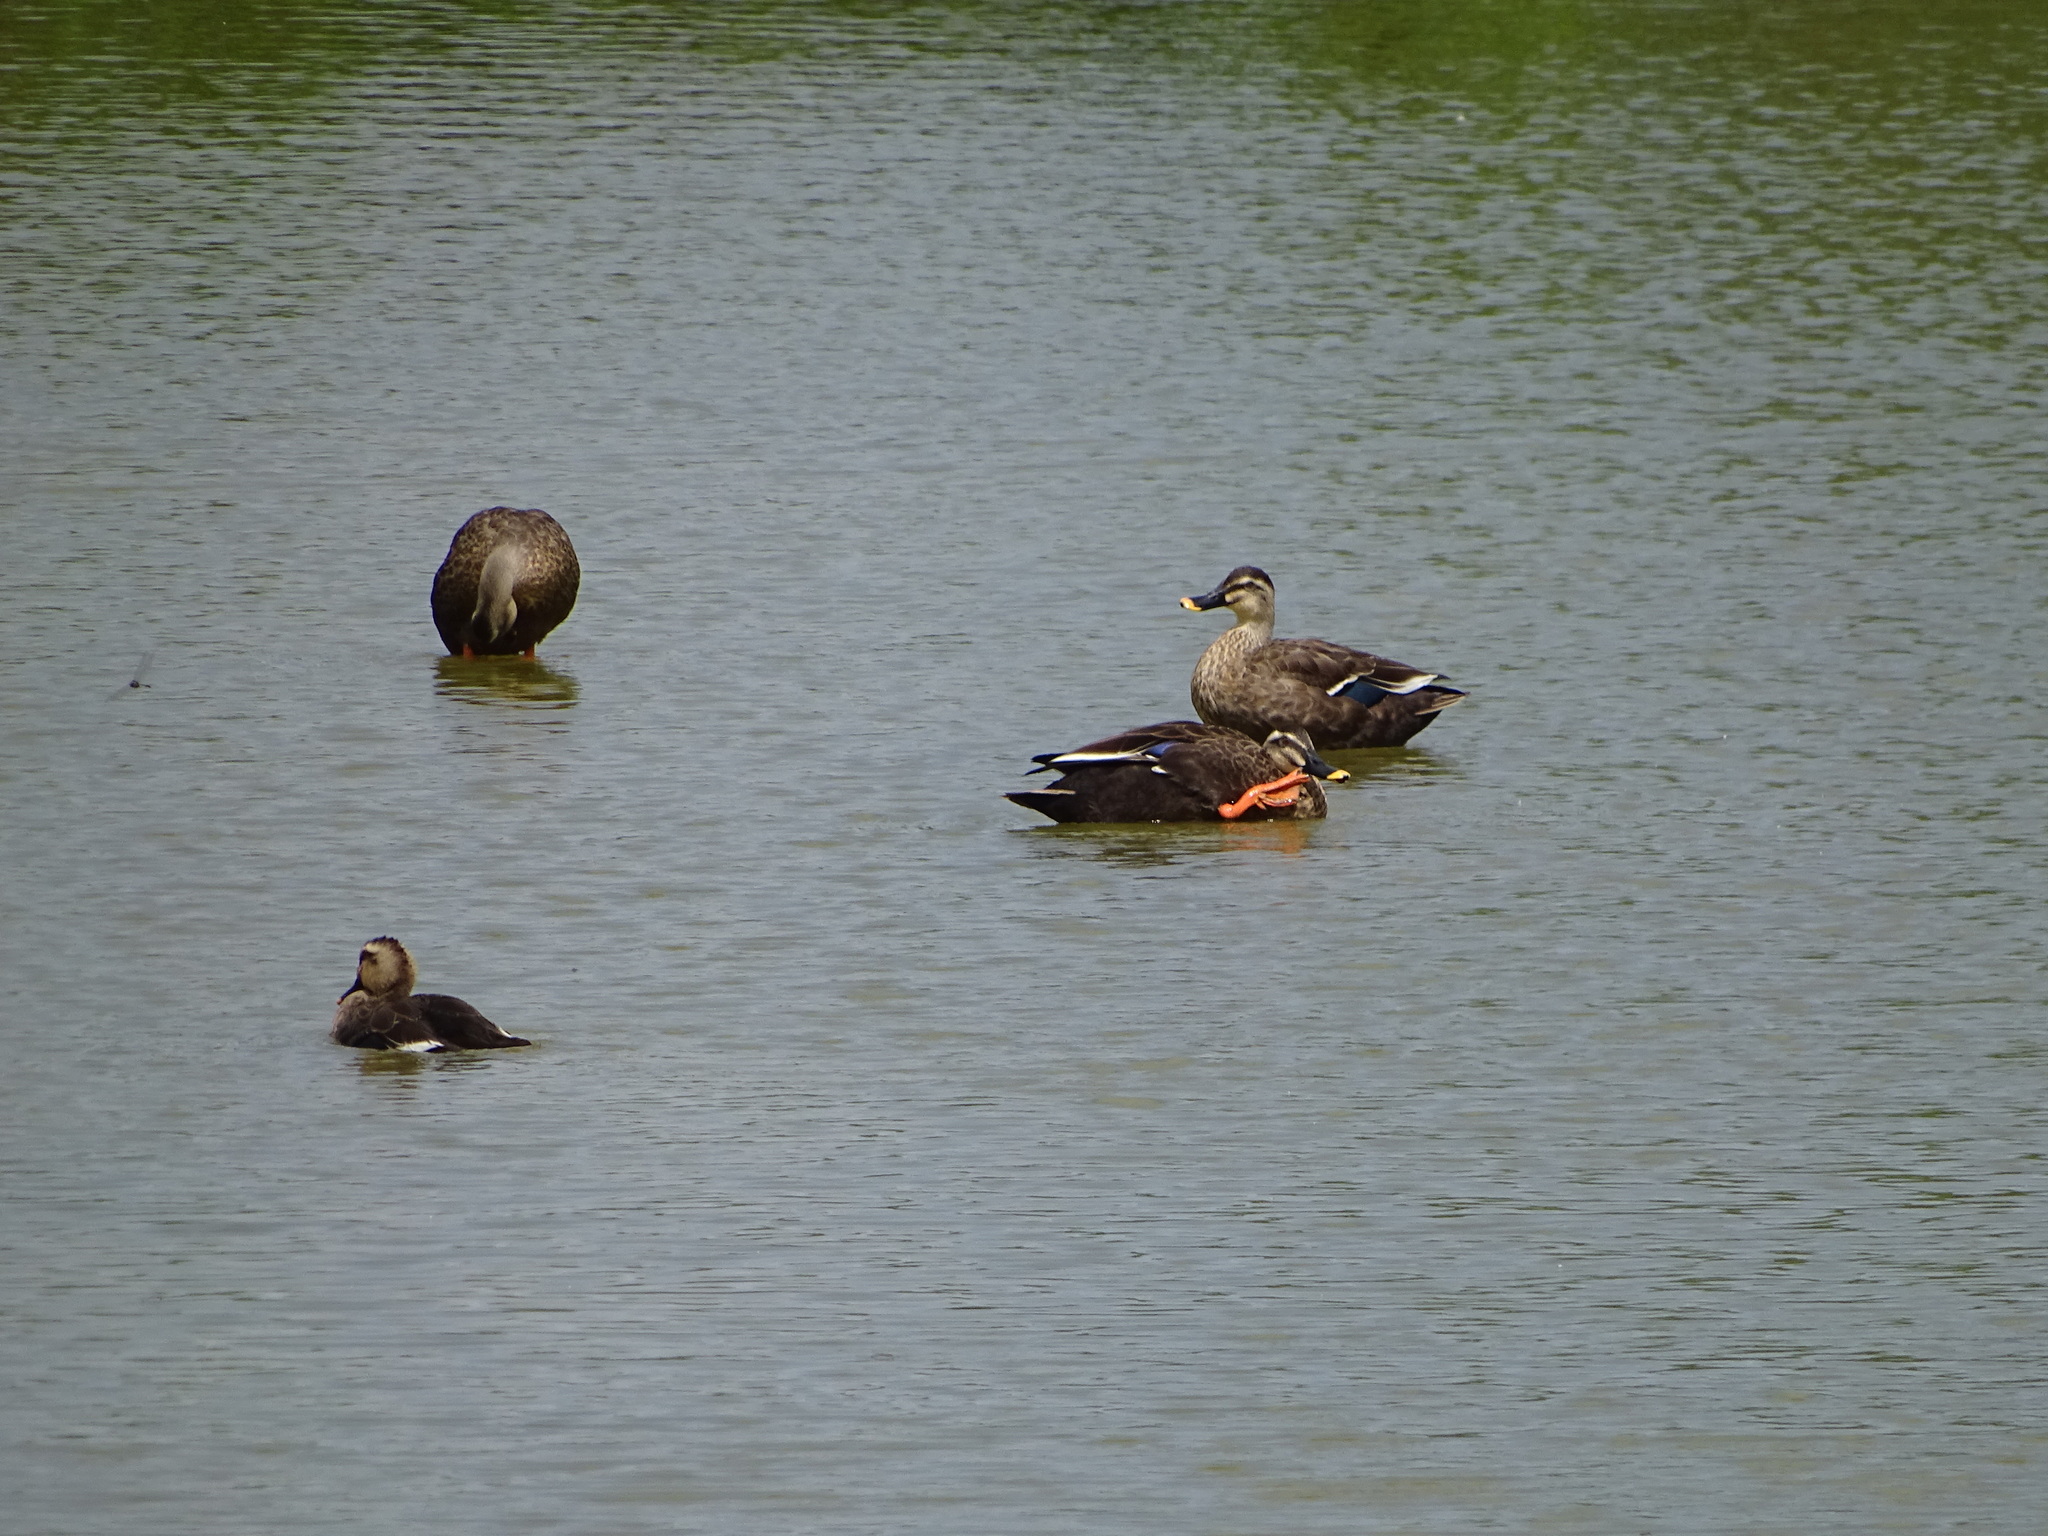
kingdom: Animalia
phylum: Chordata
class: Aves
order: Anseriformes
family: Anatidae
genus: Anas
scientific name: Anas zonorhyncha
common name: Eastern spot-billed duck
